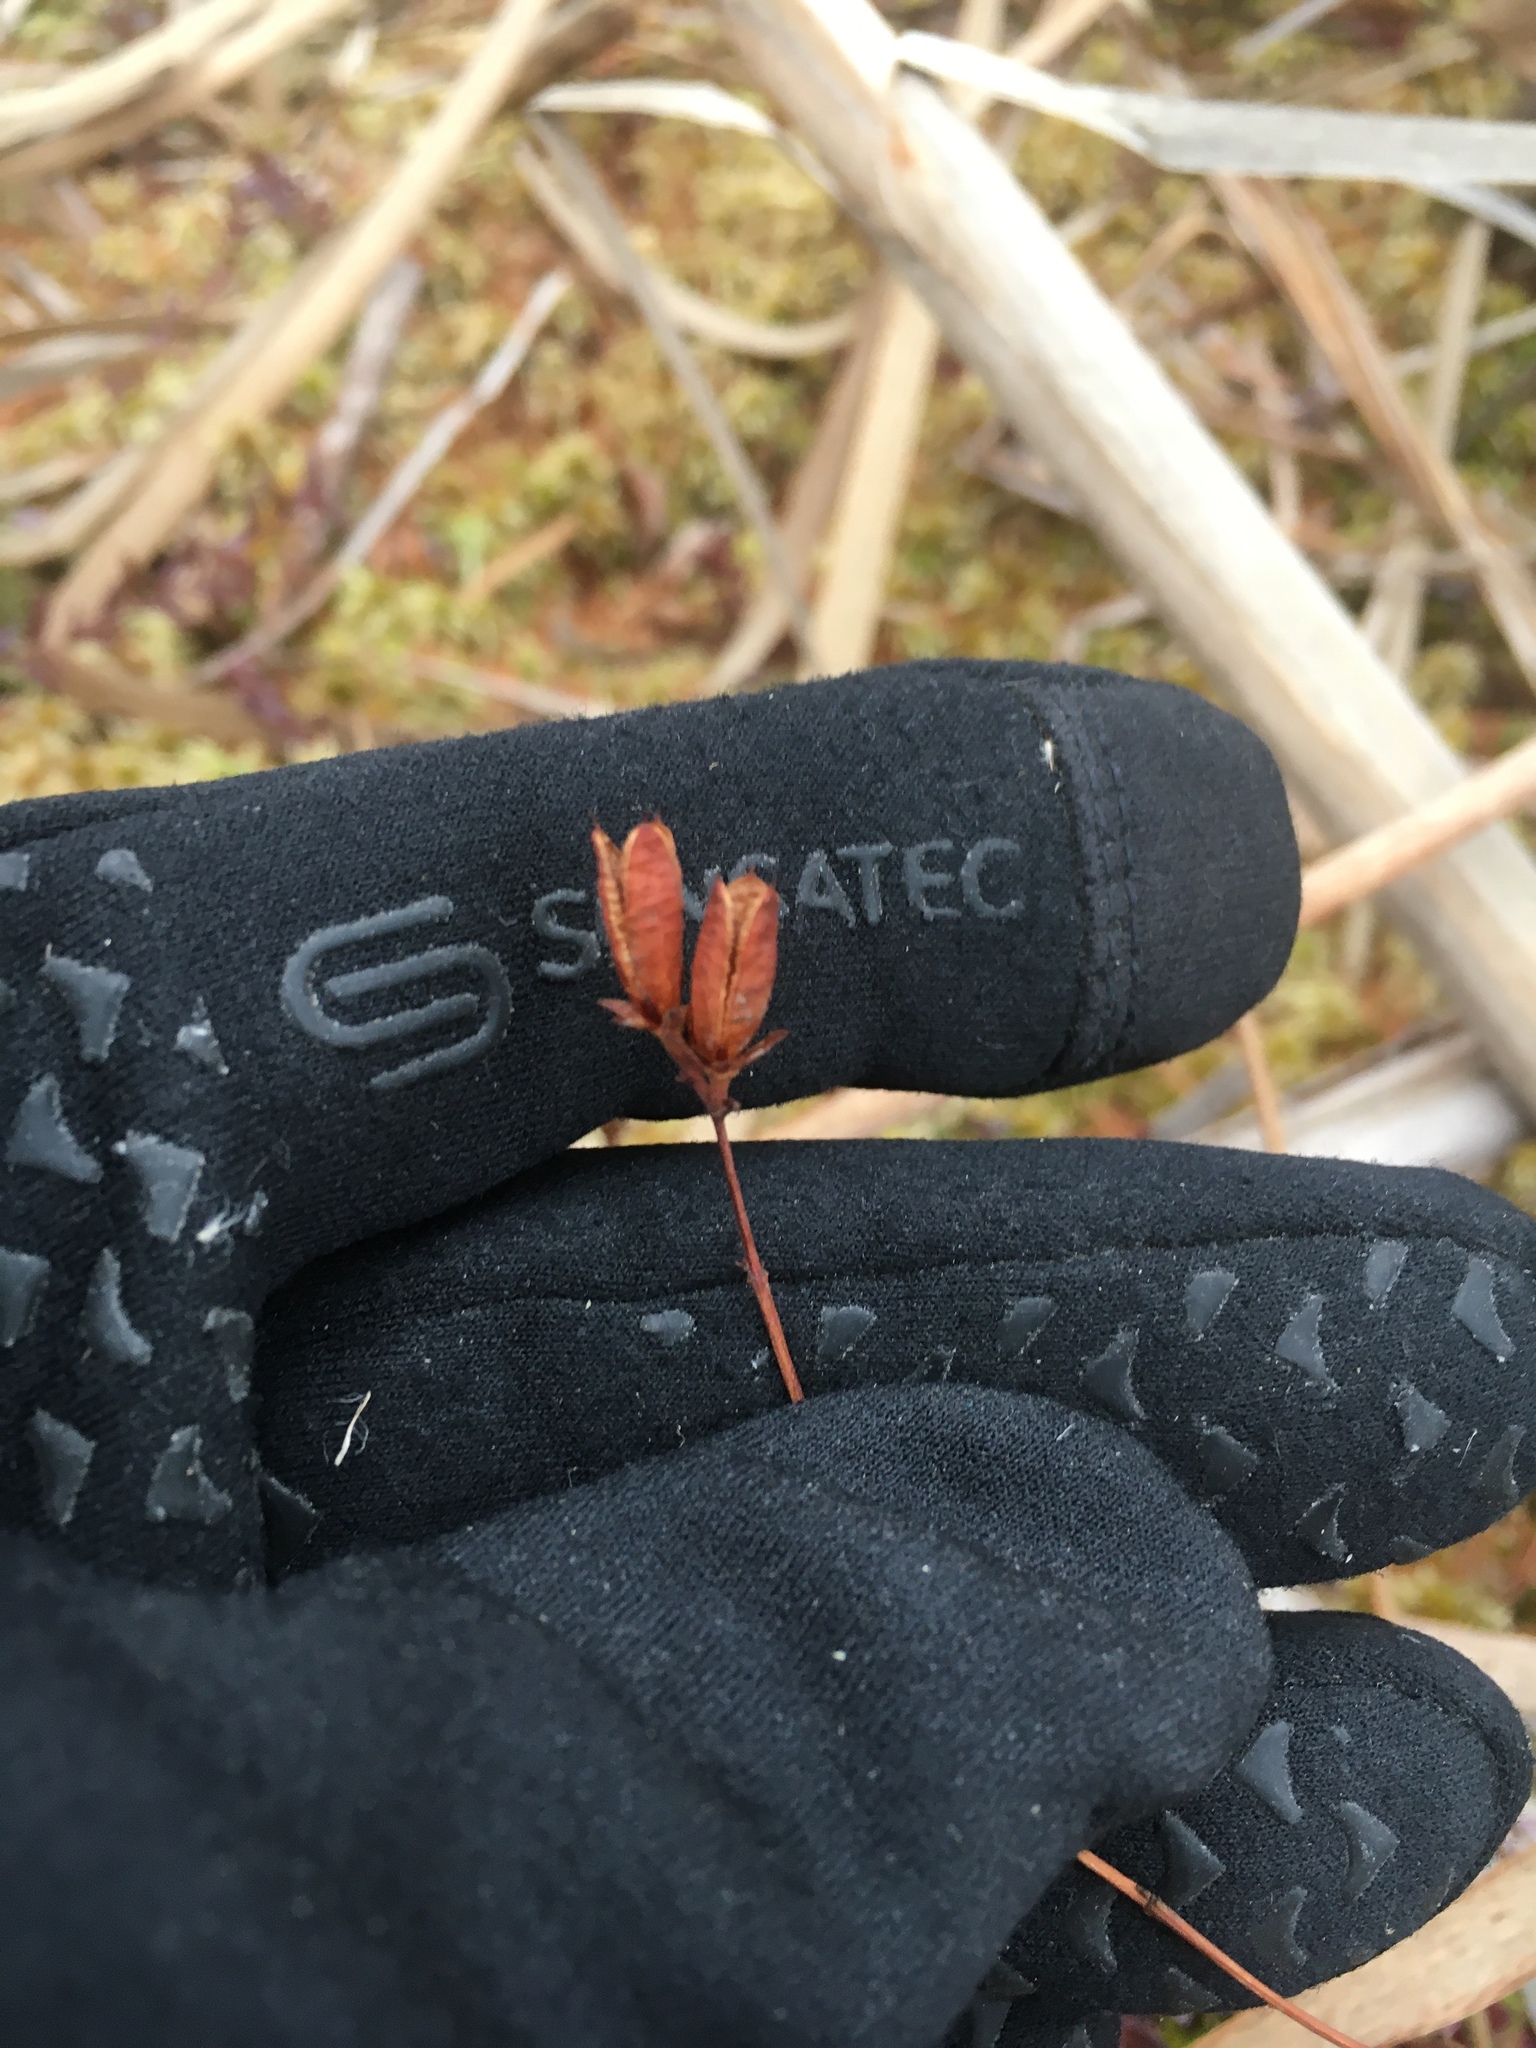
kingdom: Plantae
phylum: Tracheophyta
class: Magnoliopsida
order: Malpighiales
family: Hypericaceae
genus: Triadenum
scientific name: Triadenum fraseri
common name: Fraser's marsh st. johnswort
